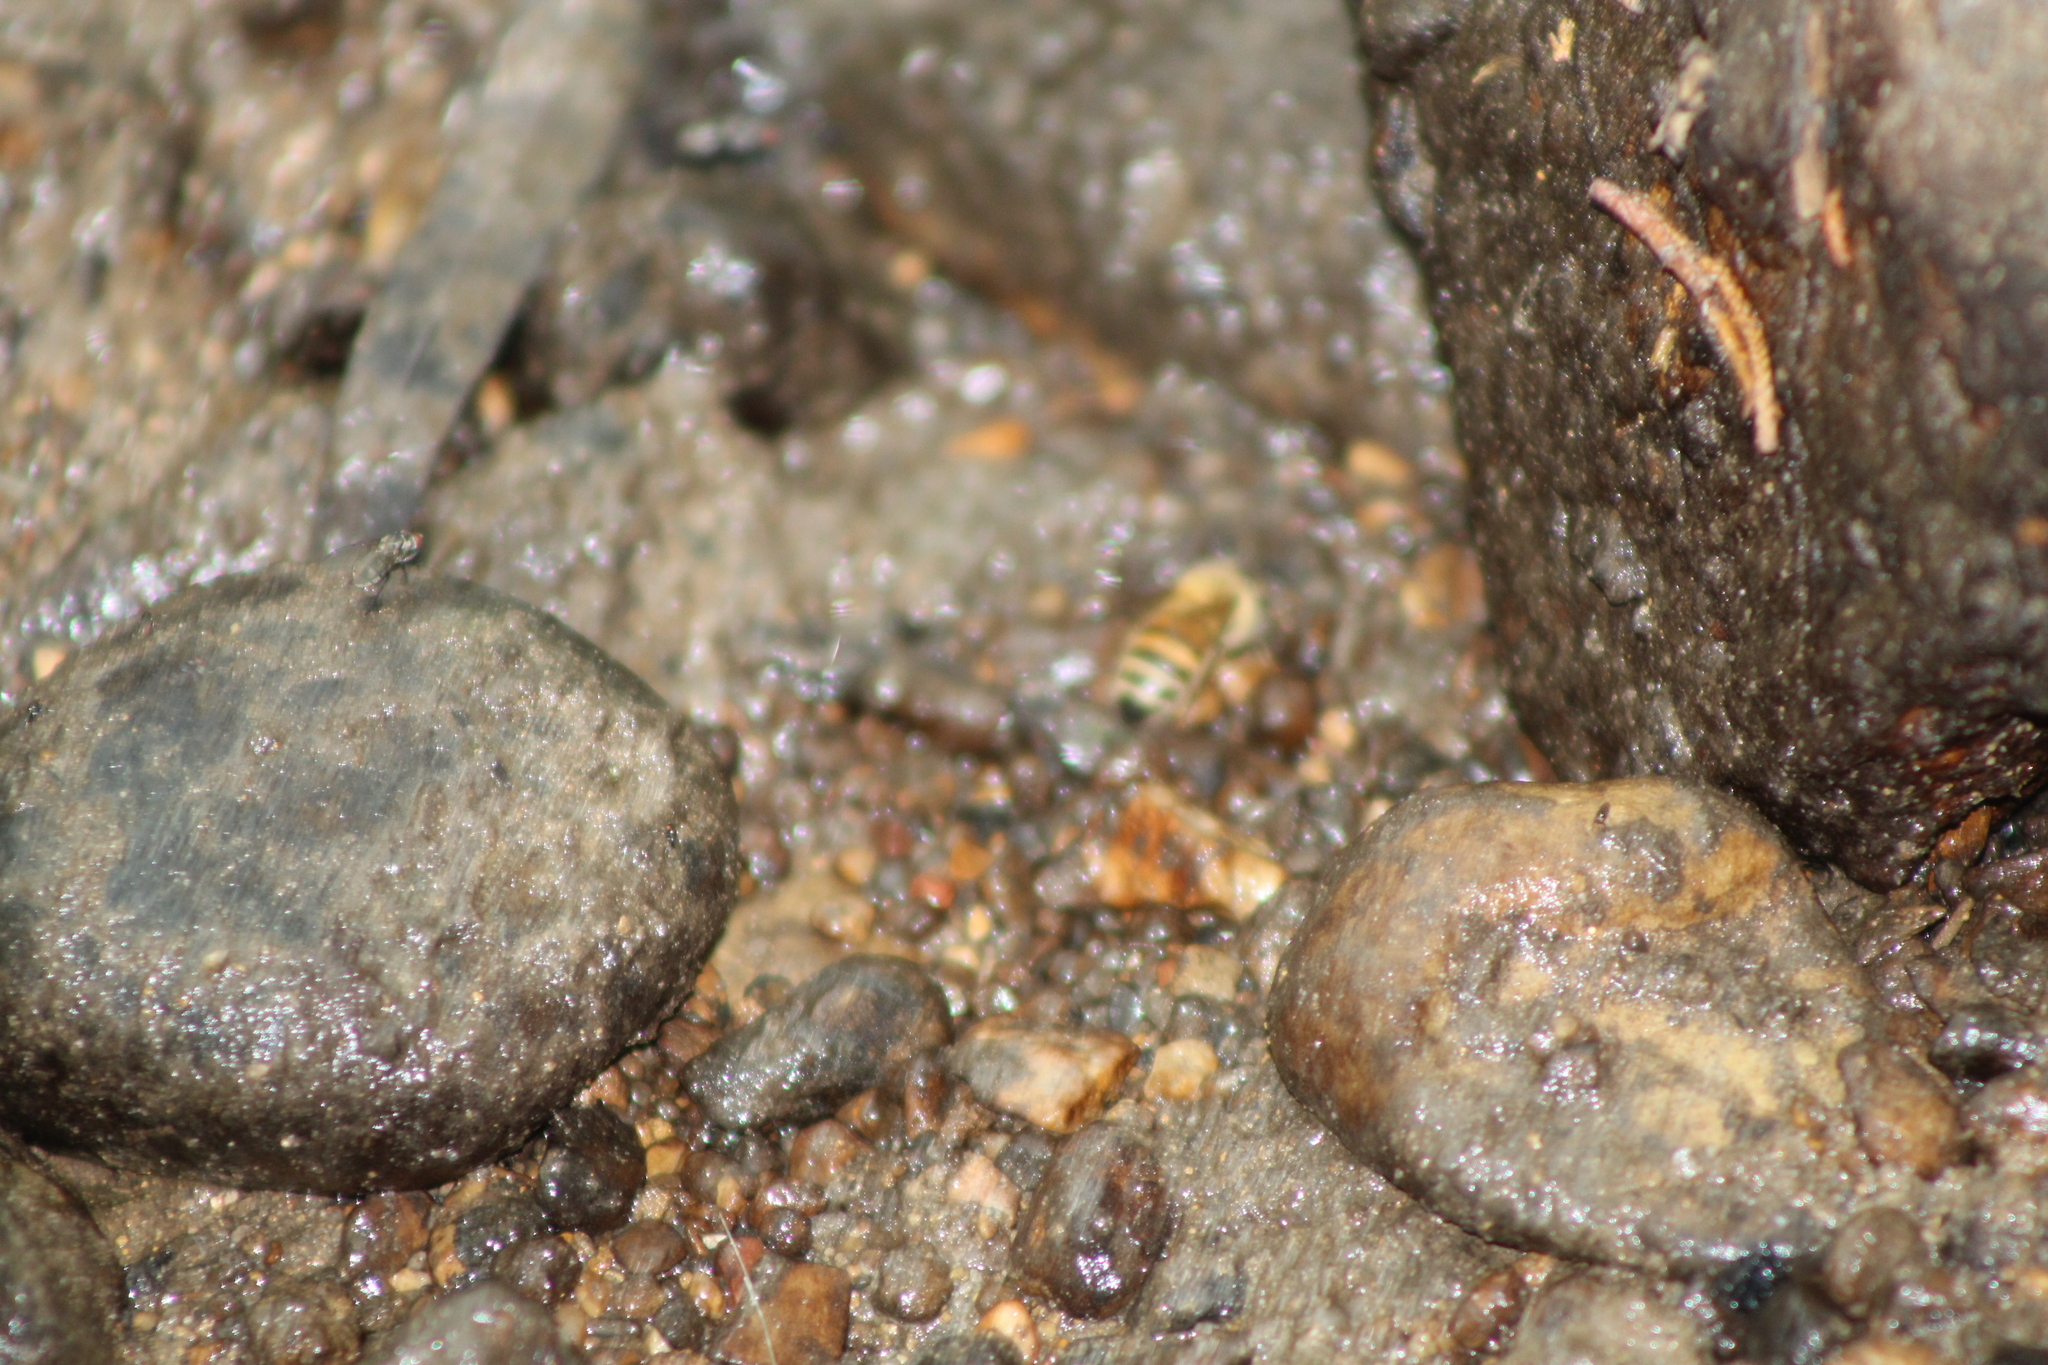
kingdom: Animalia
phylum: Arthropoda
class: Insecta
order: Hymenoptera
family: Apidae
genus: Apis
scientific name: Apis mellifera
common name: Honey bee
